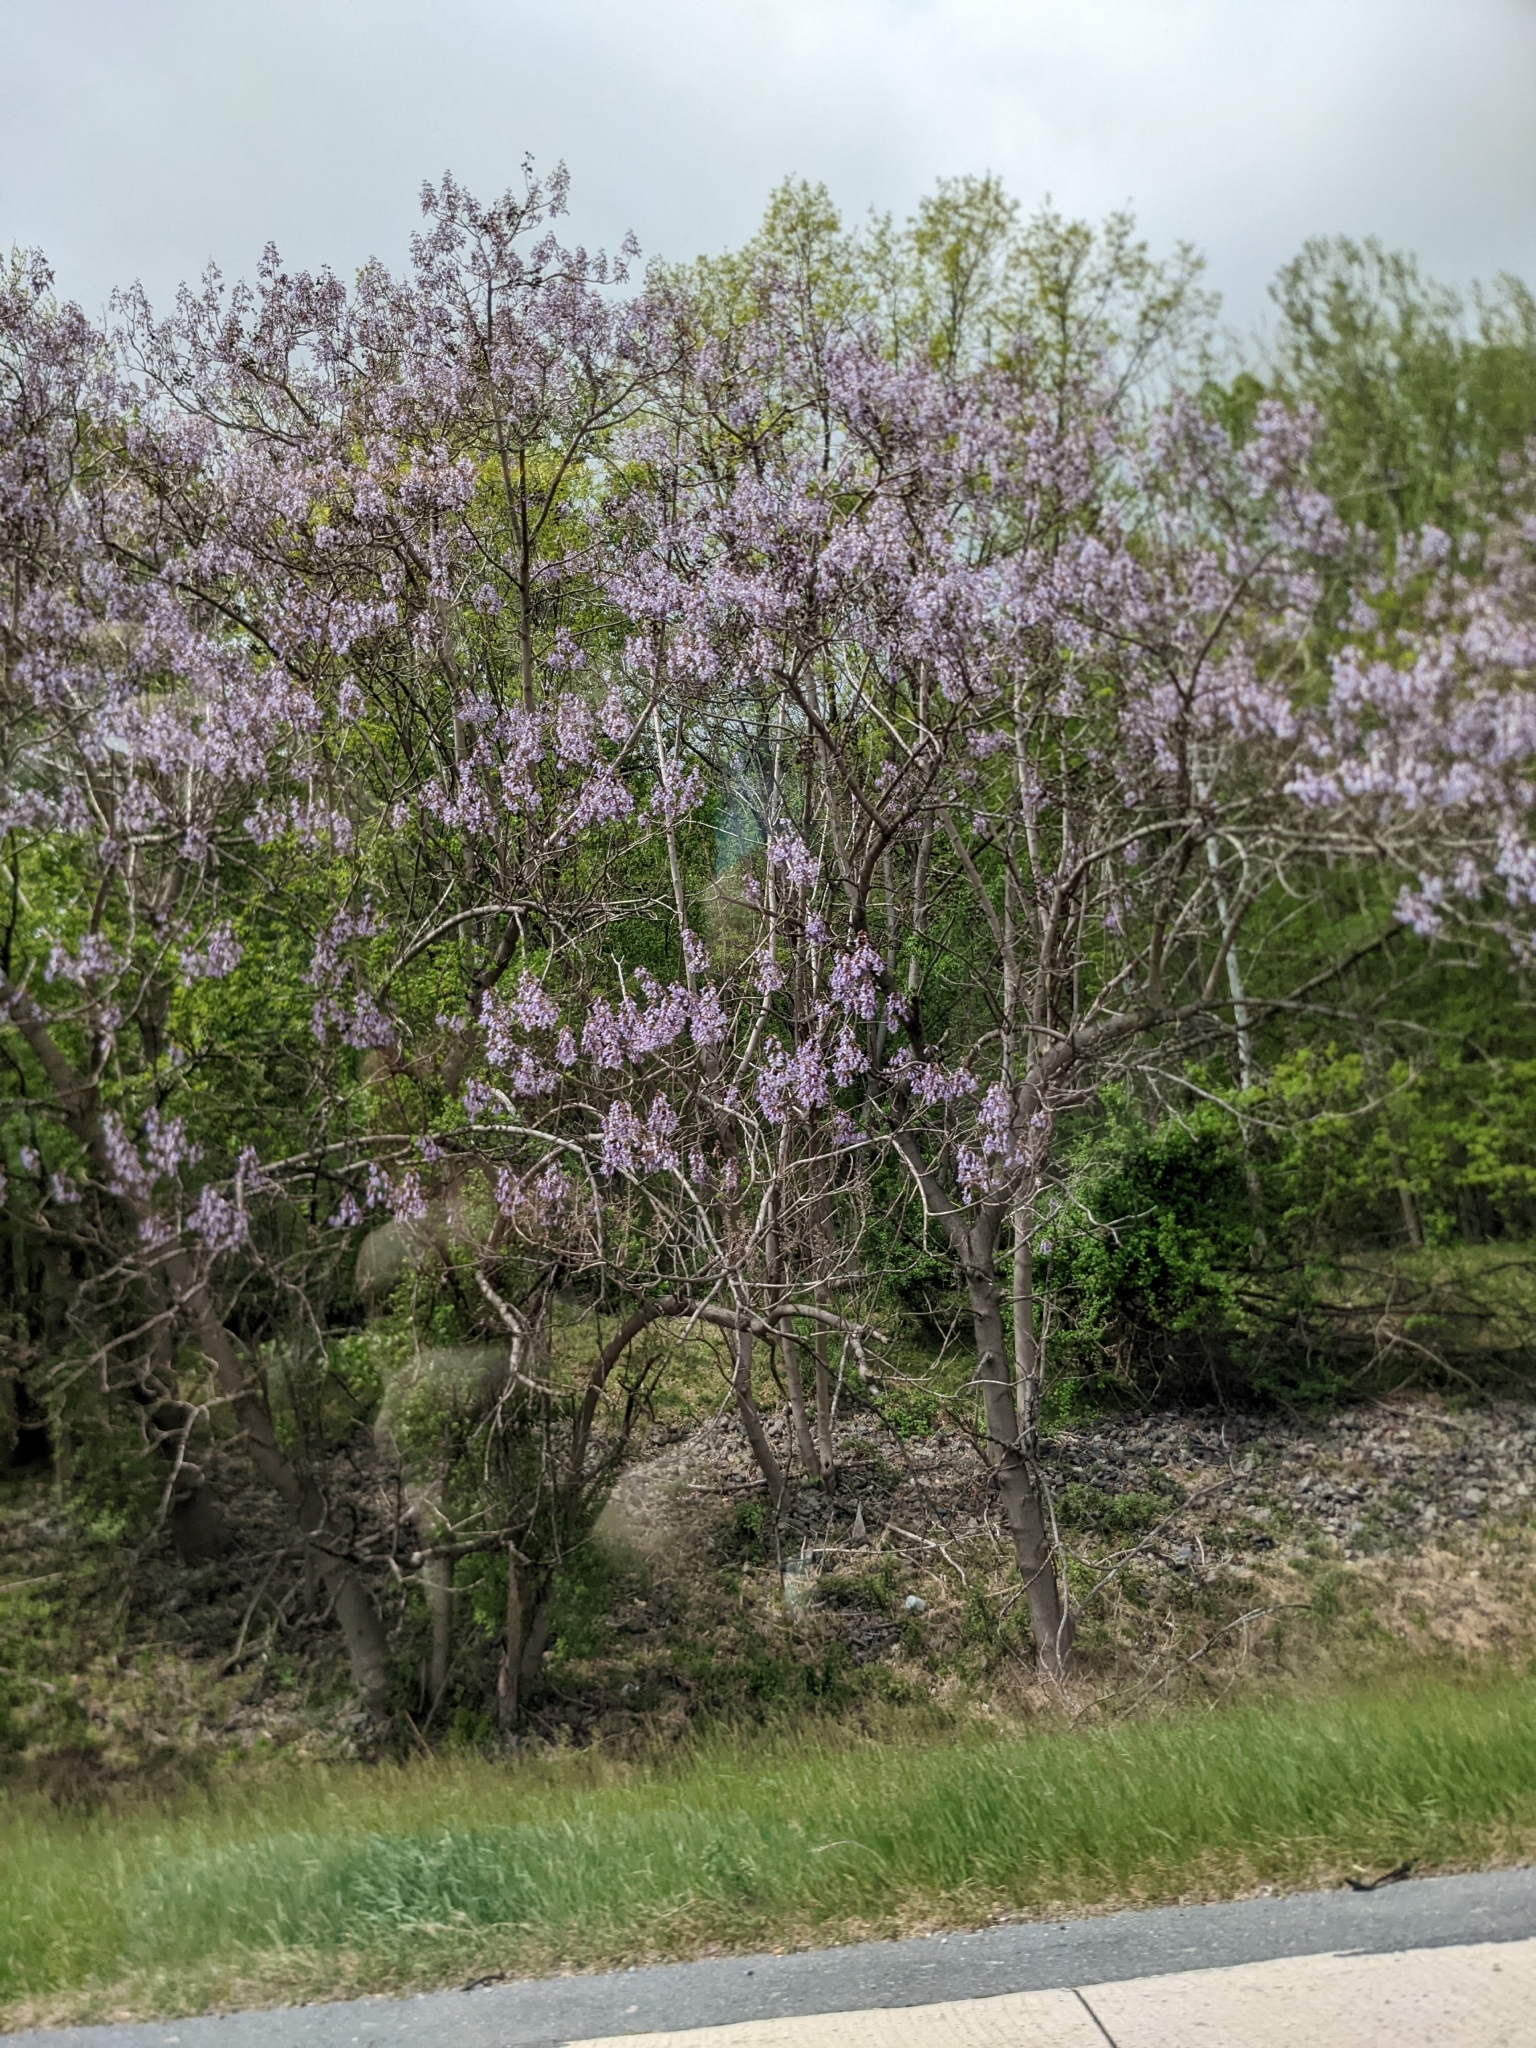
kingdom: Plantae
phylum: Tracheophyta
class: Magnoliopsida
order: Lamiales
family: Paulowniaceae
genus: Paulownia
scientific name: Paulownia tomentosa
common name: Foxglove-tree
